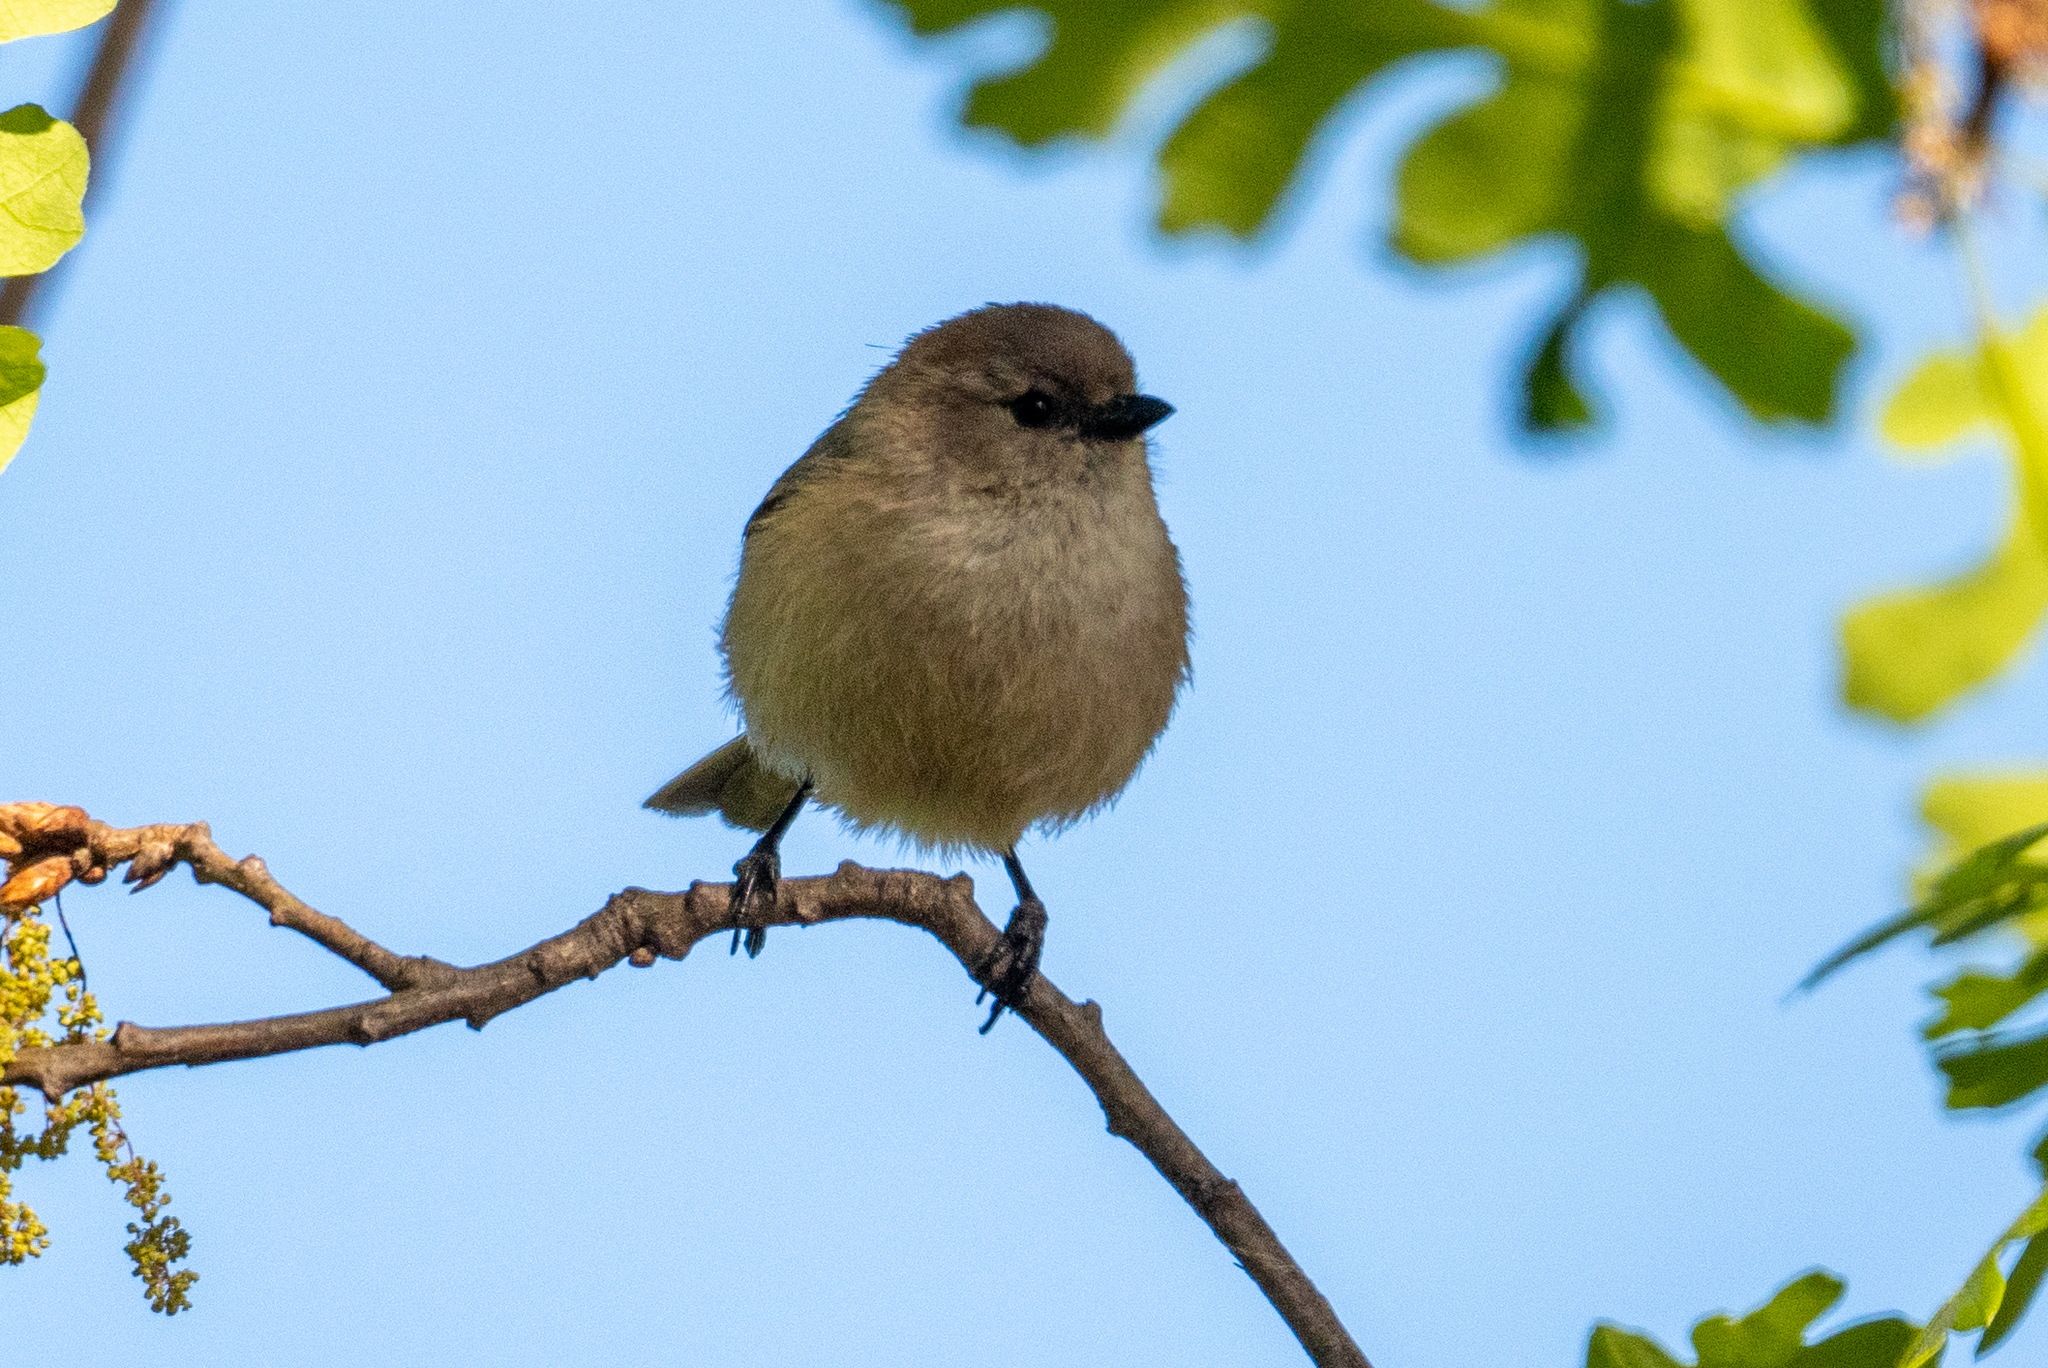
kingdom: Animalia
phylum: Chordata
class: Aves
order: Passeriformes
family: Aegithalidae
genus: Psaltriparus
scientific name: Psaltriparus minimus
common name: American bushtit
